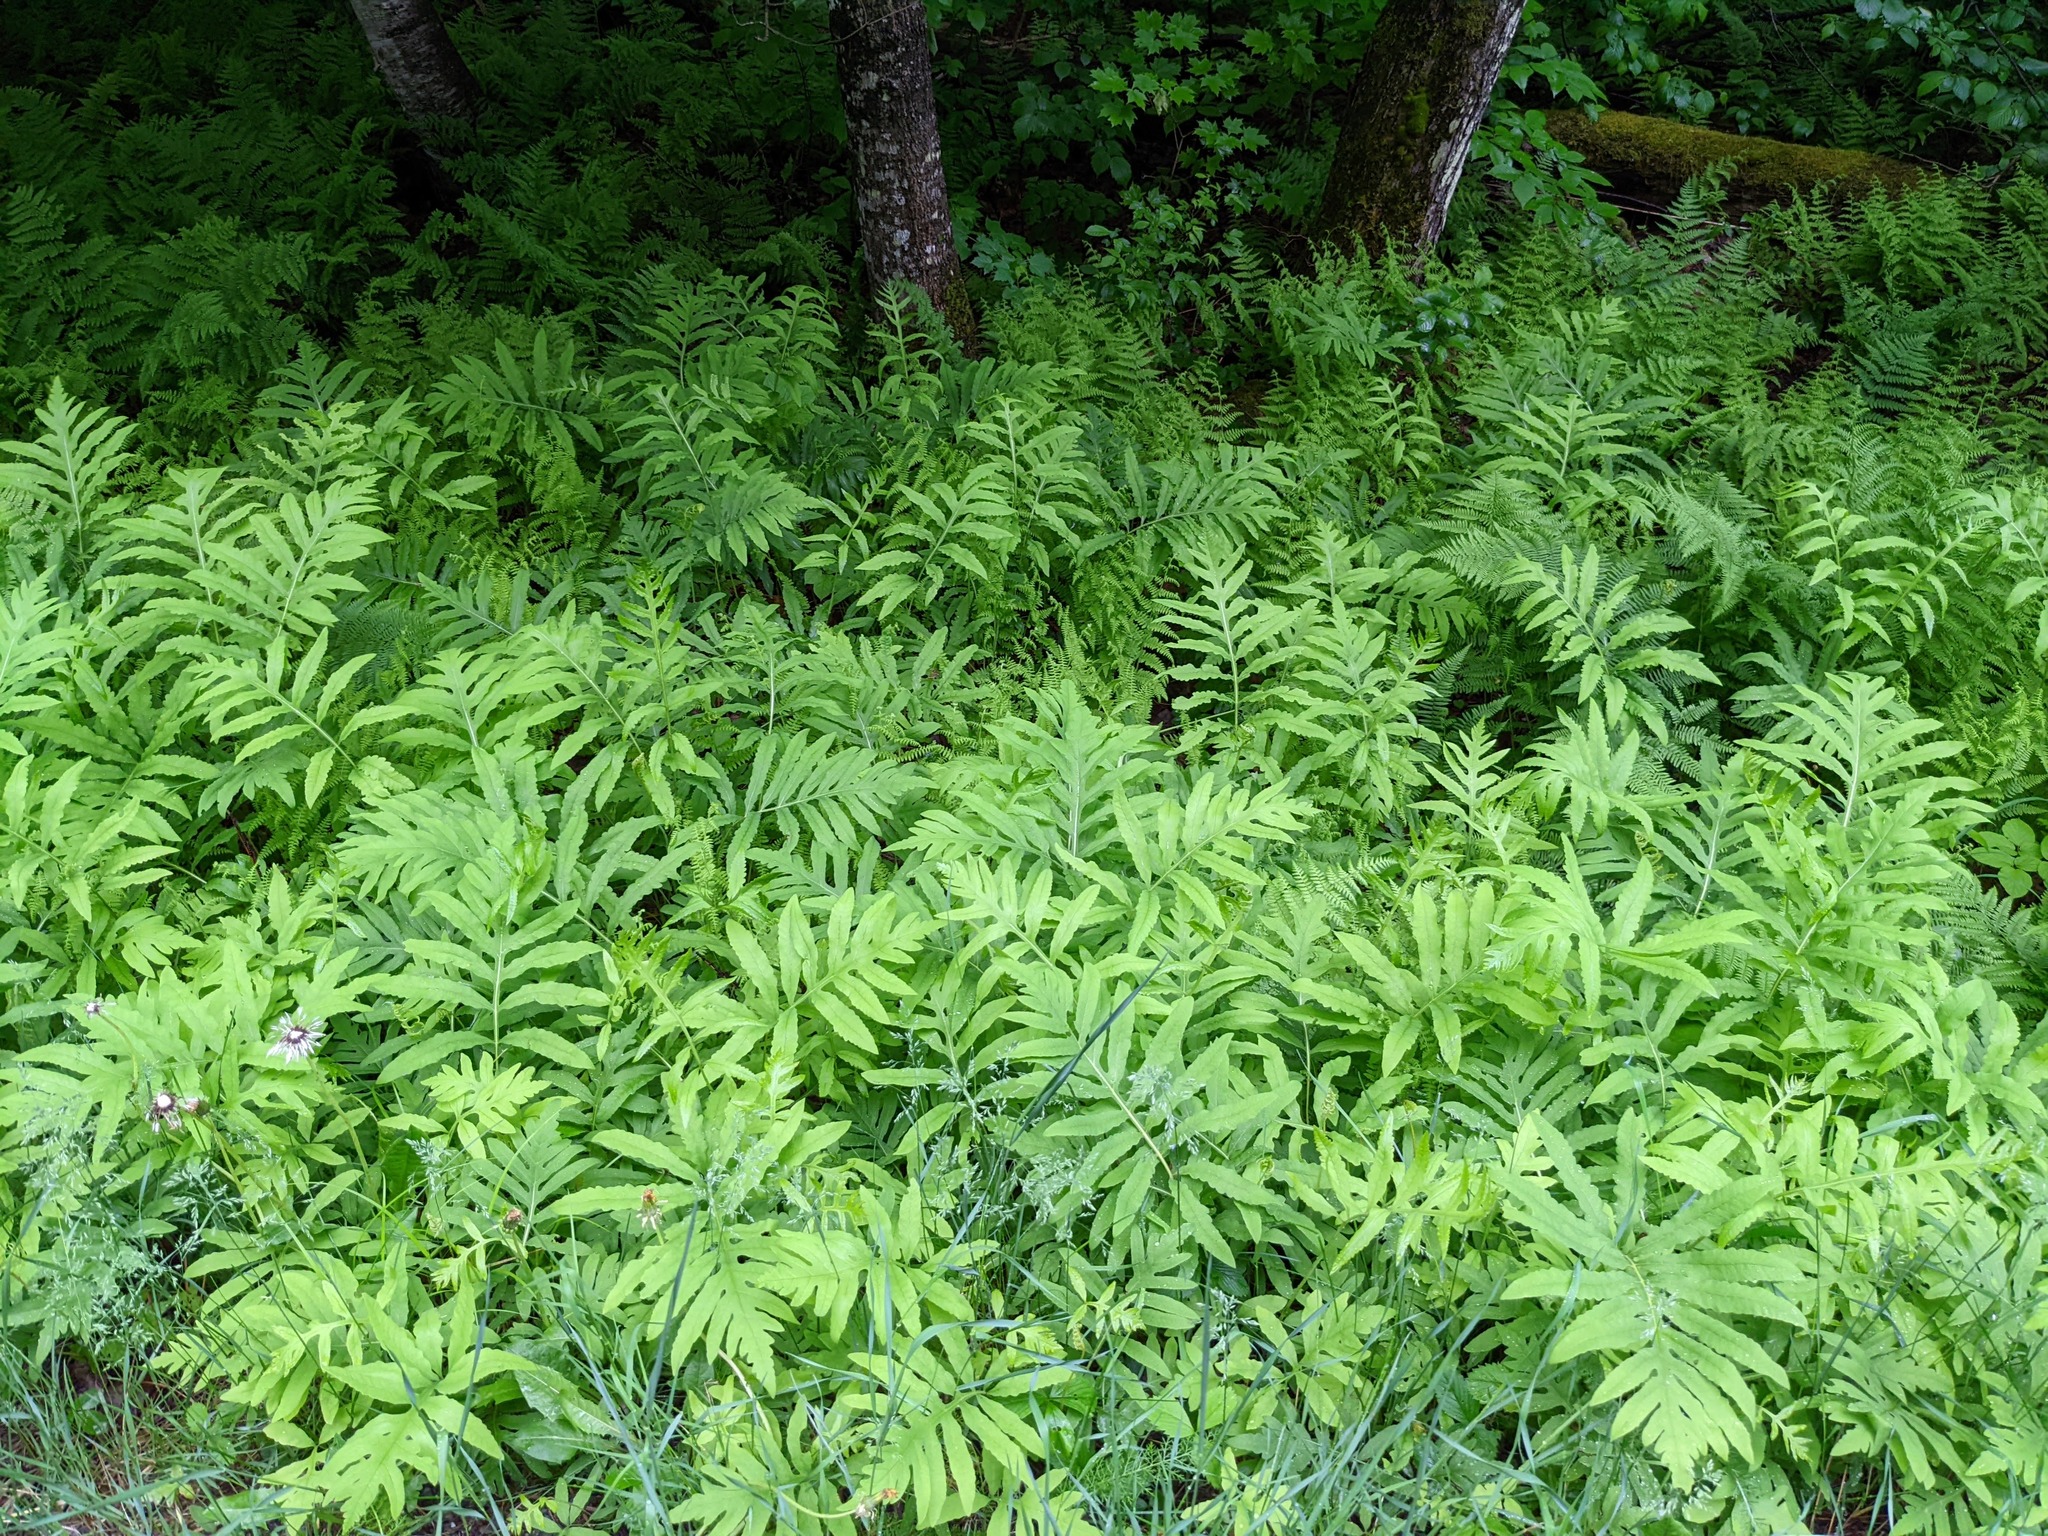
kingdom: Plantae
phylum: Tracheophyta
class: Polypodiopsida
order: Polypodiales
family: Onocleaceae
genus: Onoclea
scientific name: Onoclea sensibilis
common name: Sensitive fern
